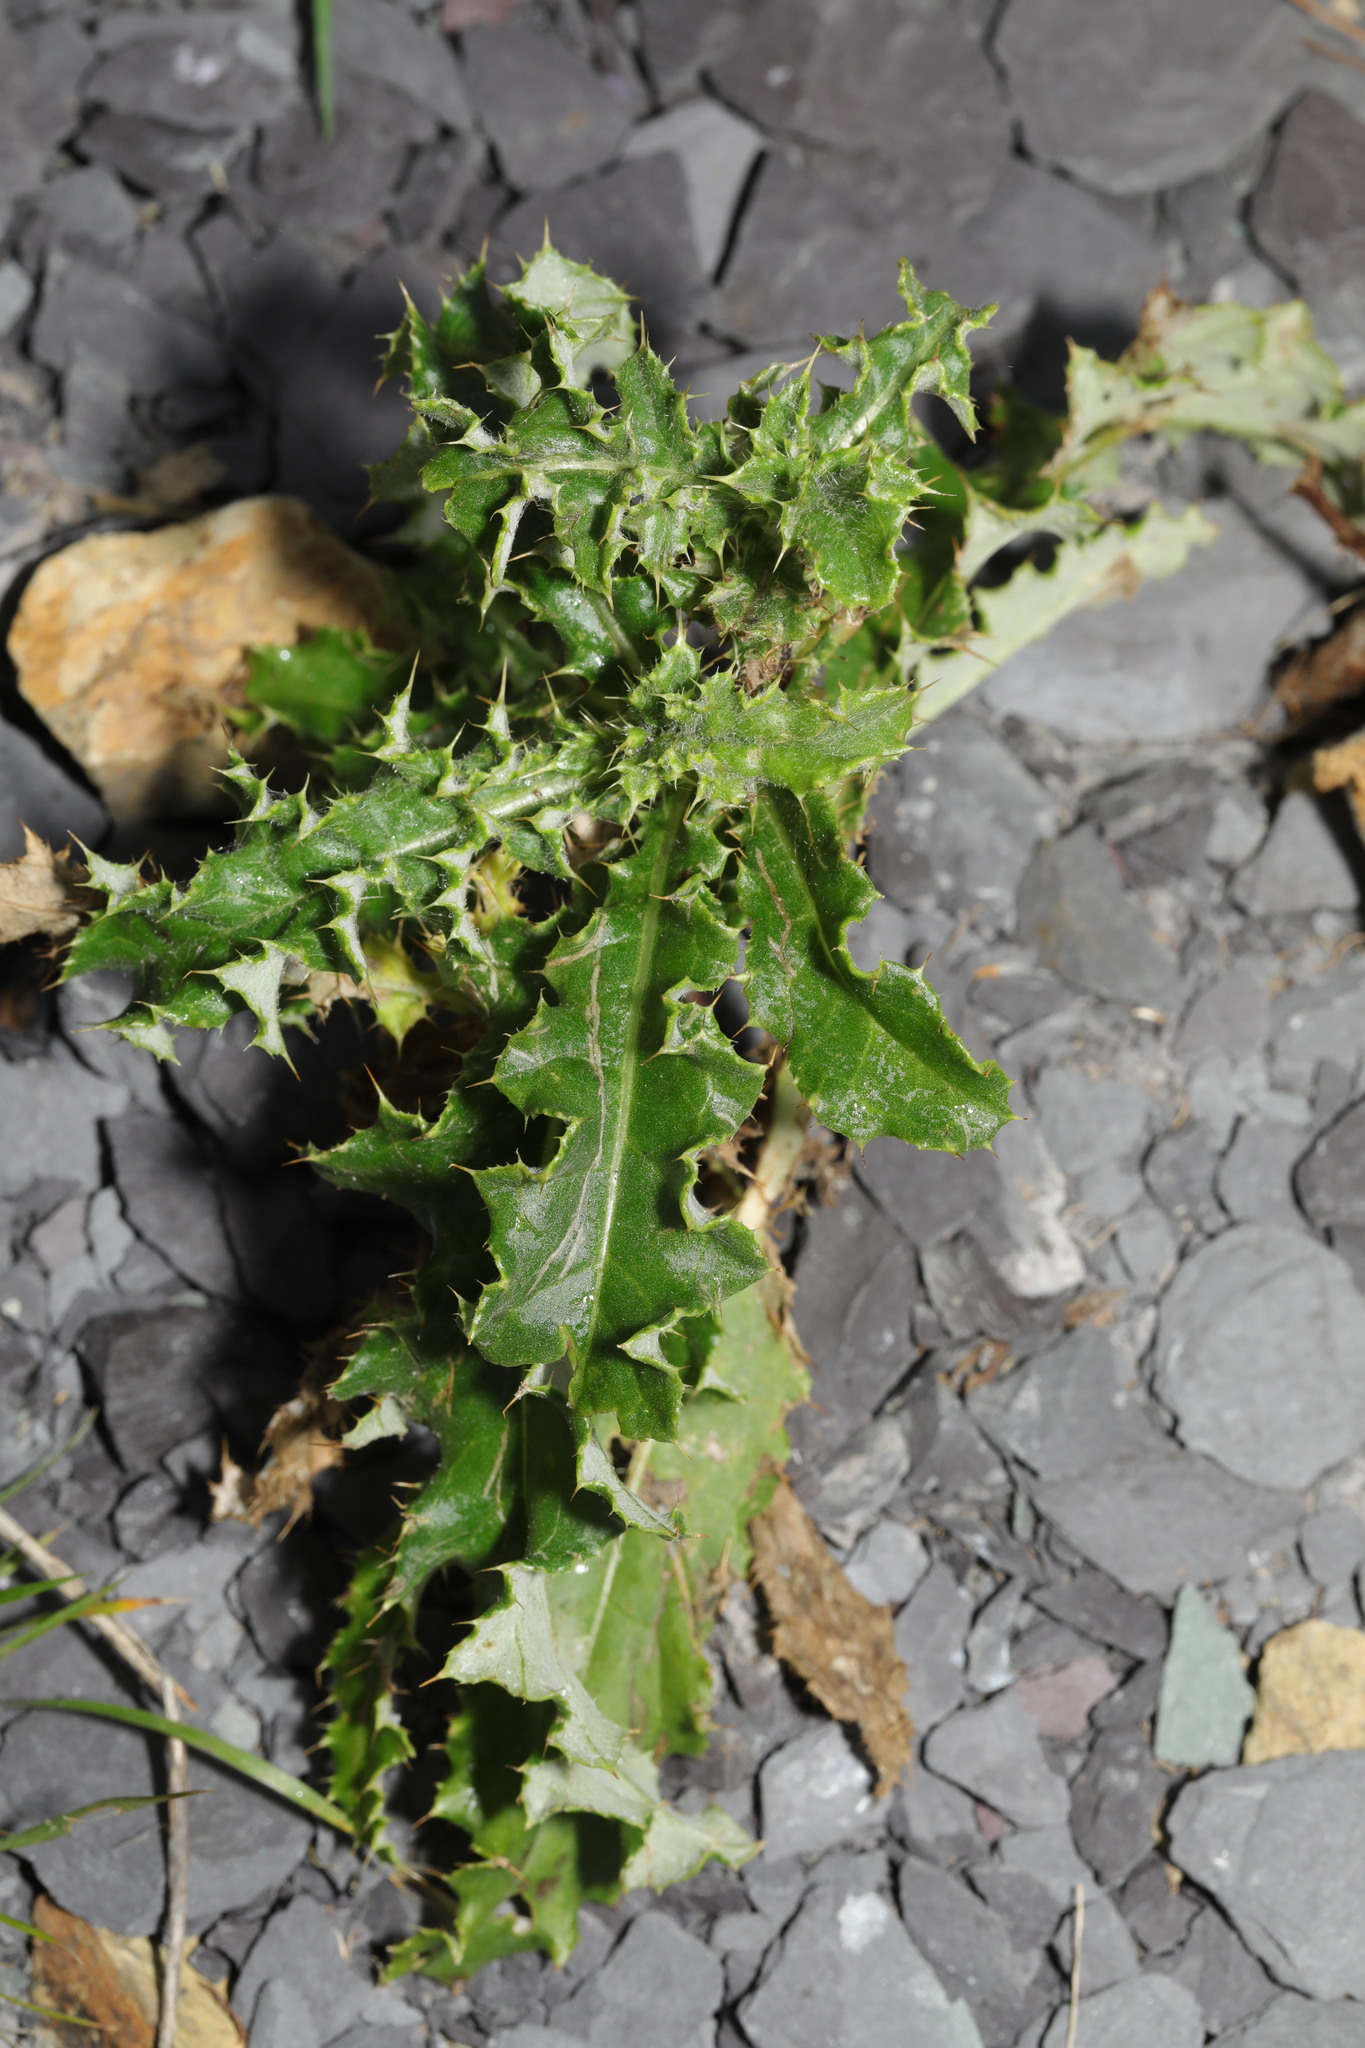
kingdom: Plantae
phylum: Tracheophyta
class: Magnoliopsida
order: Asterales
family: Asteraceae
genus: Cirsium
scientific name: Cirsium arvense
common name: Creeping thistle
